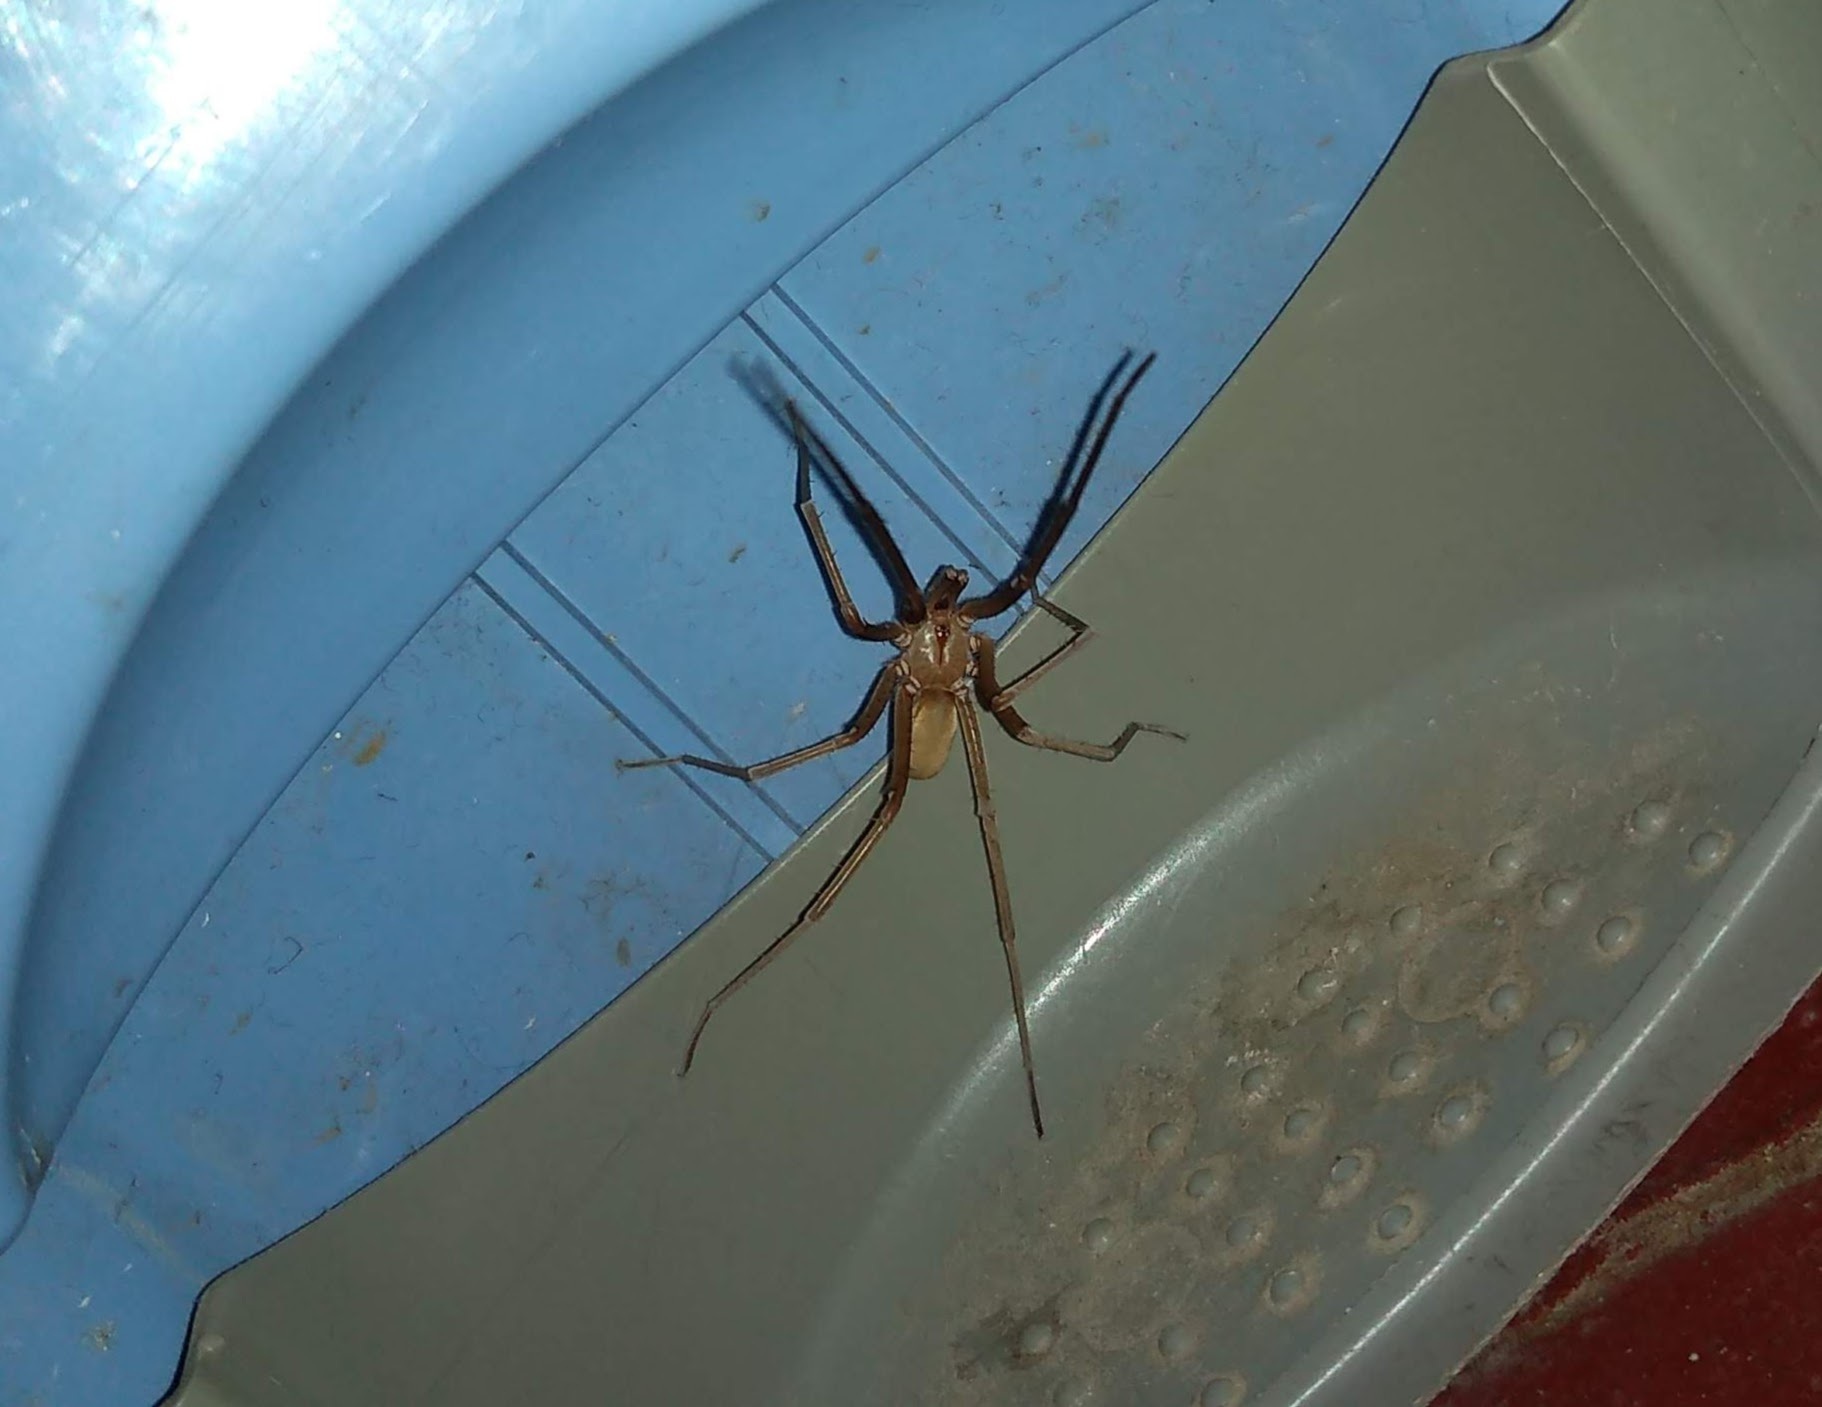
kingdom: Animalia
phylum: Arthropoda
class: Arachnida
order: Araneae
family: Filistatidae
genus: Kukulcania
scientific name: Kukulcania hibernalis
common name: Crevice weaver
